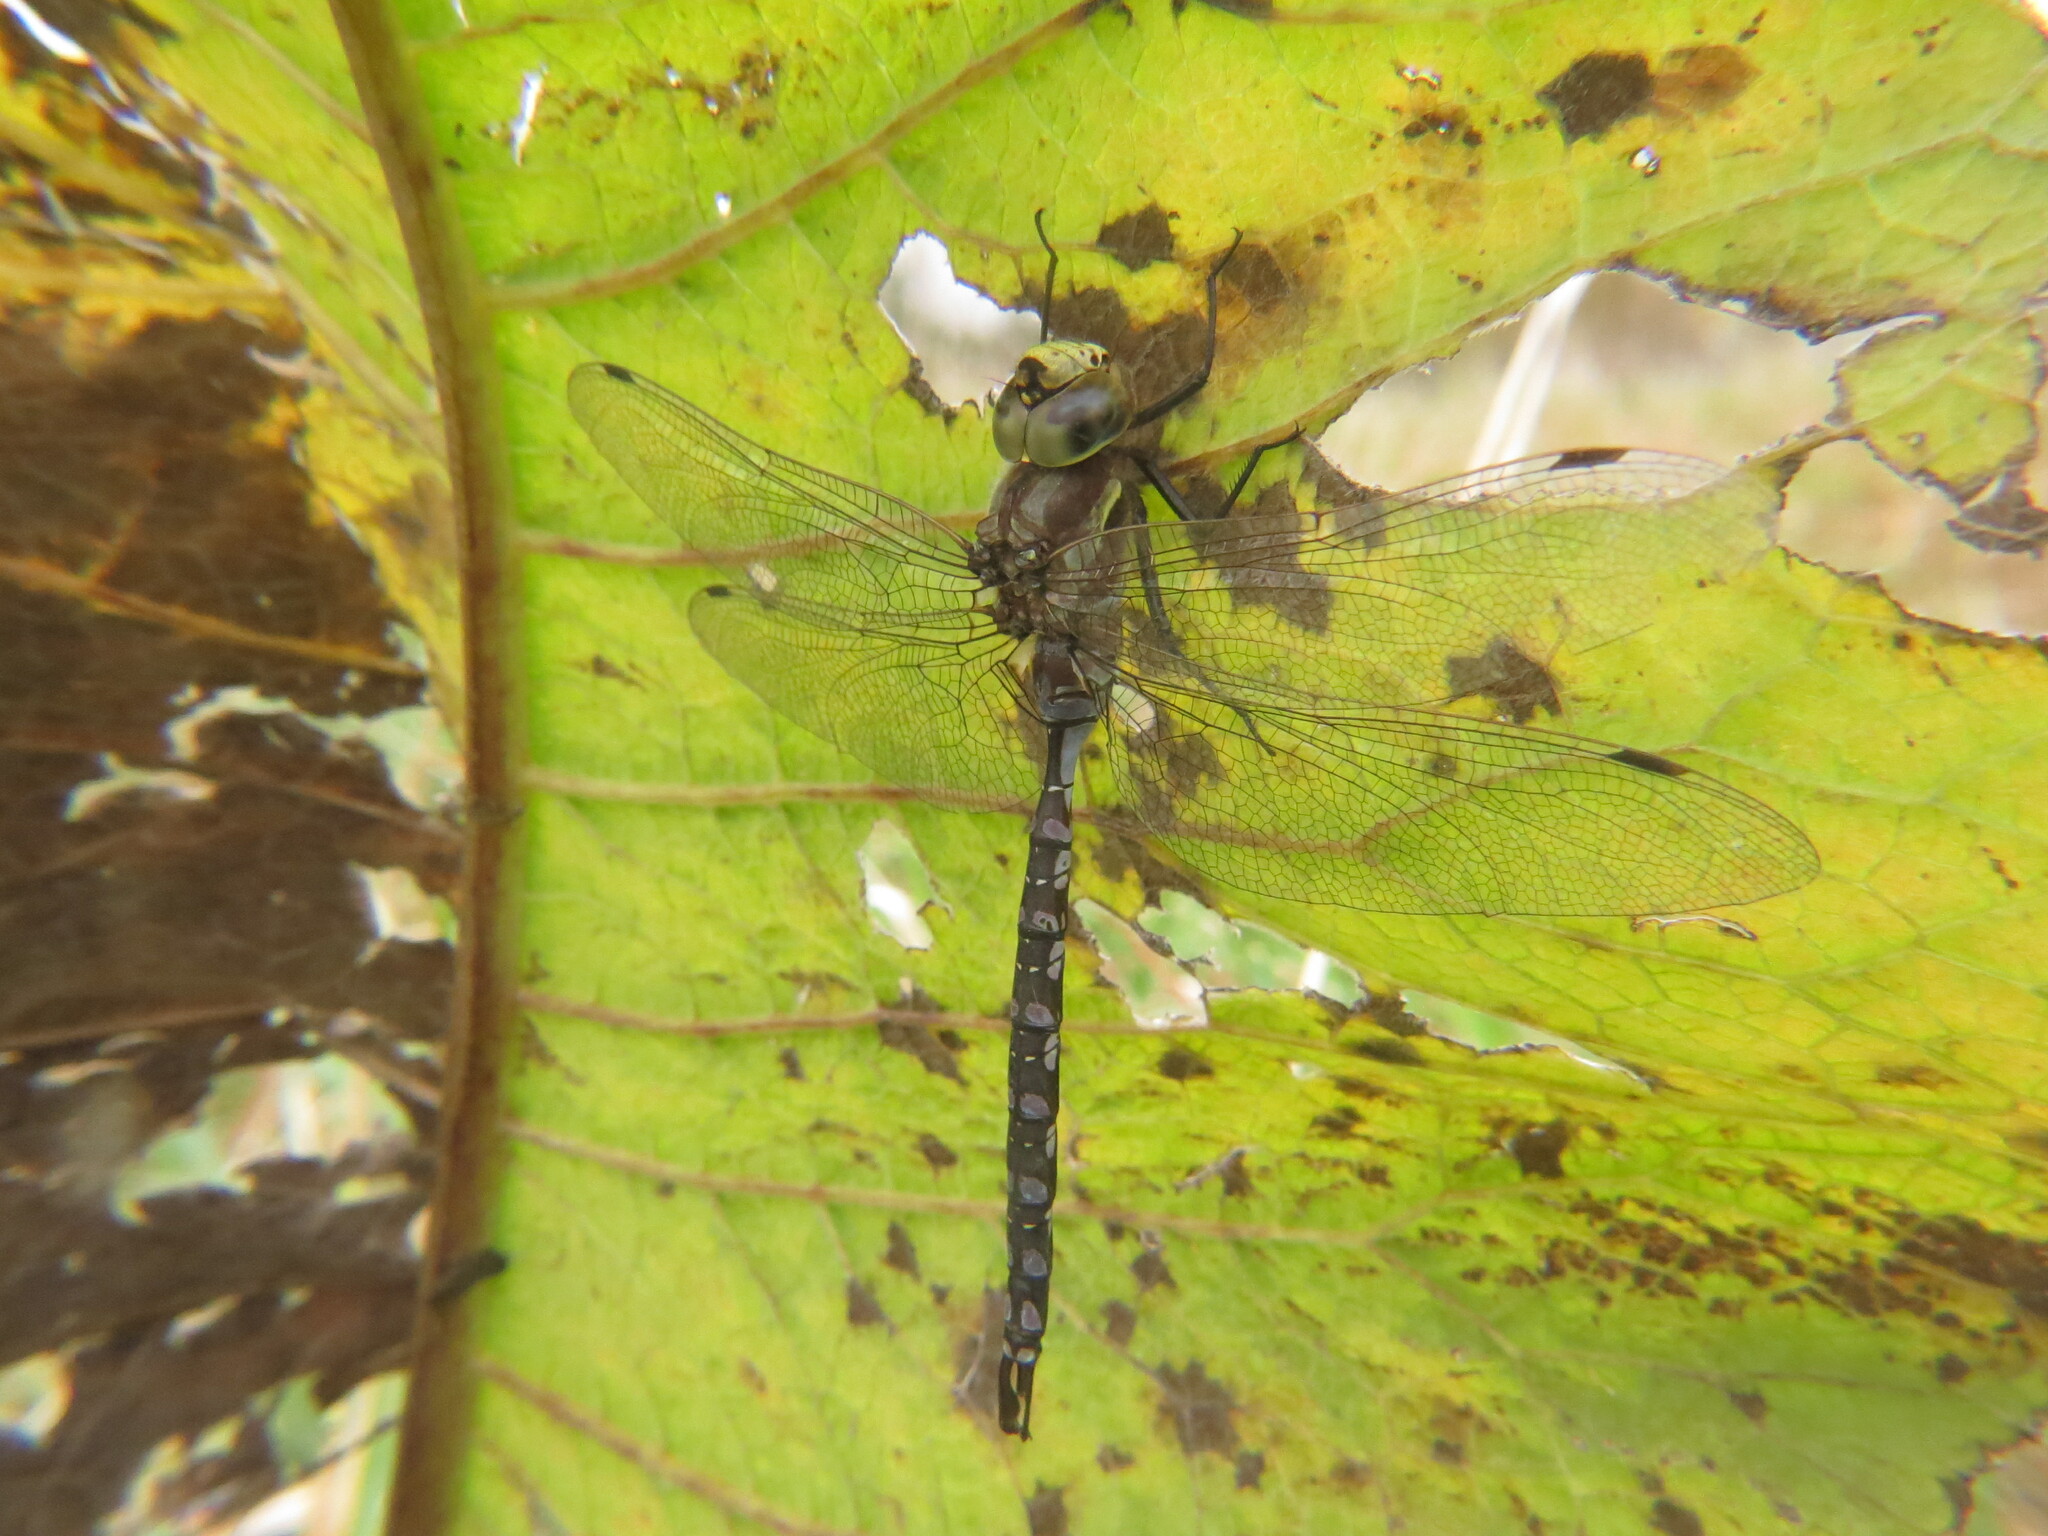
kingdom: Animalia
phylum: Arthropoda
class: Insecta
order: Odonata
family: Aeshnidae
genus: Aeshna
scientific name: Aeshna constricta
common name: Lance-tipped darner
